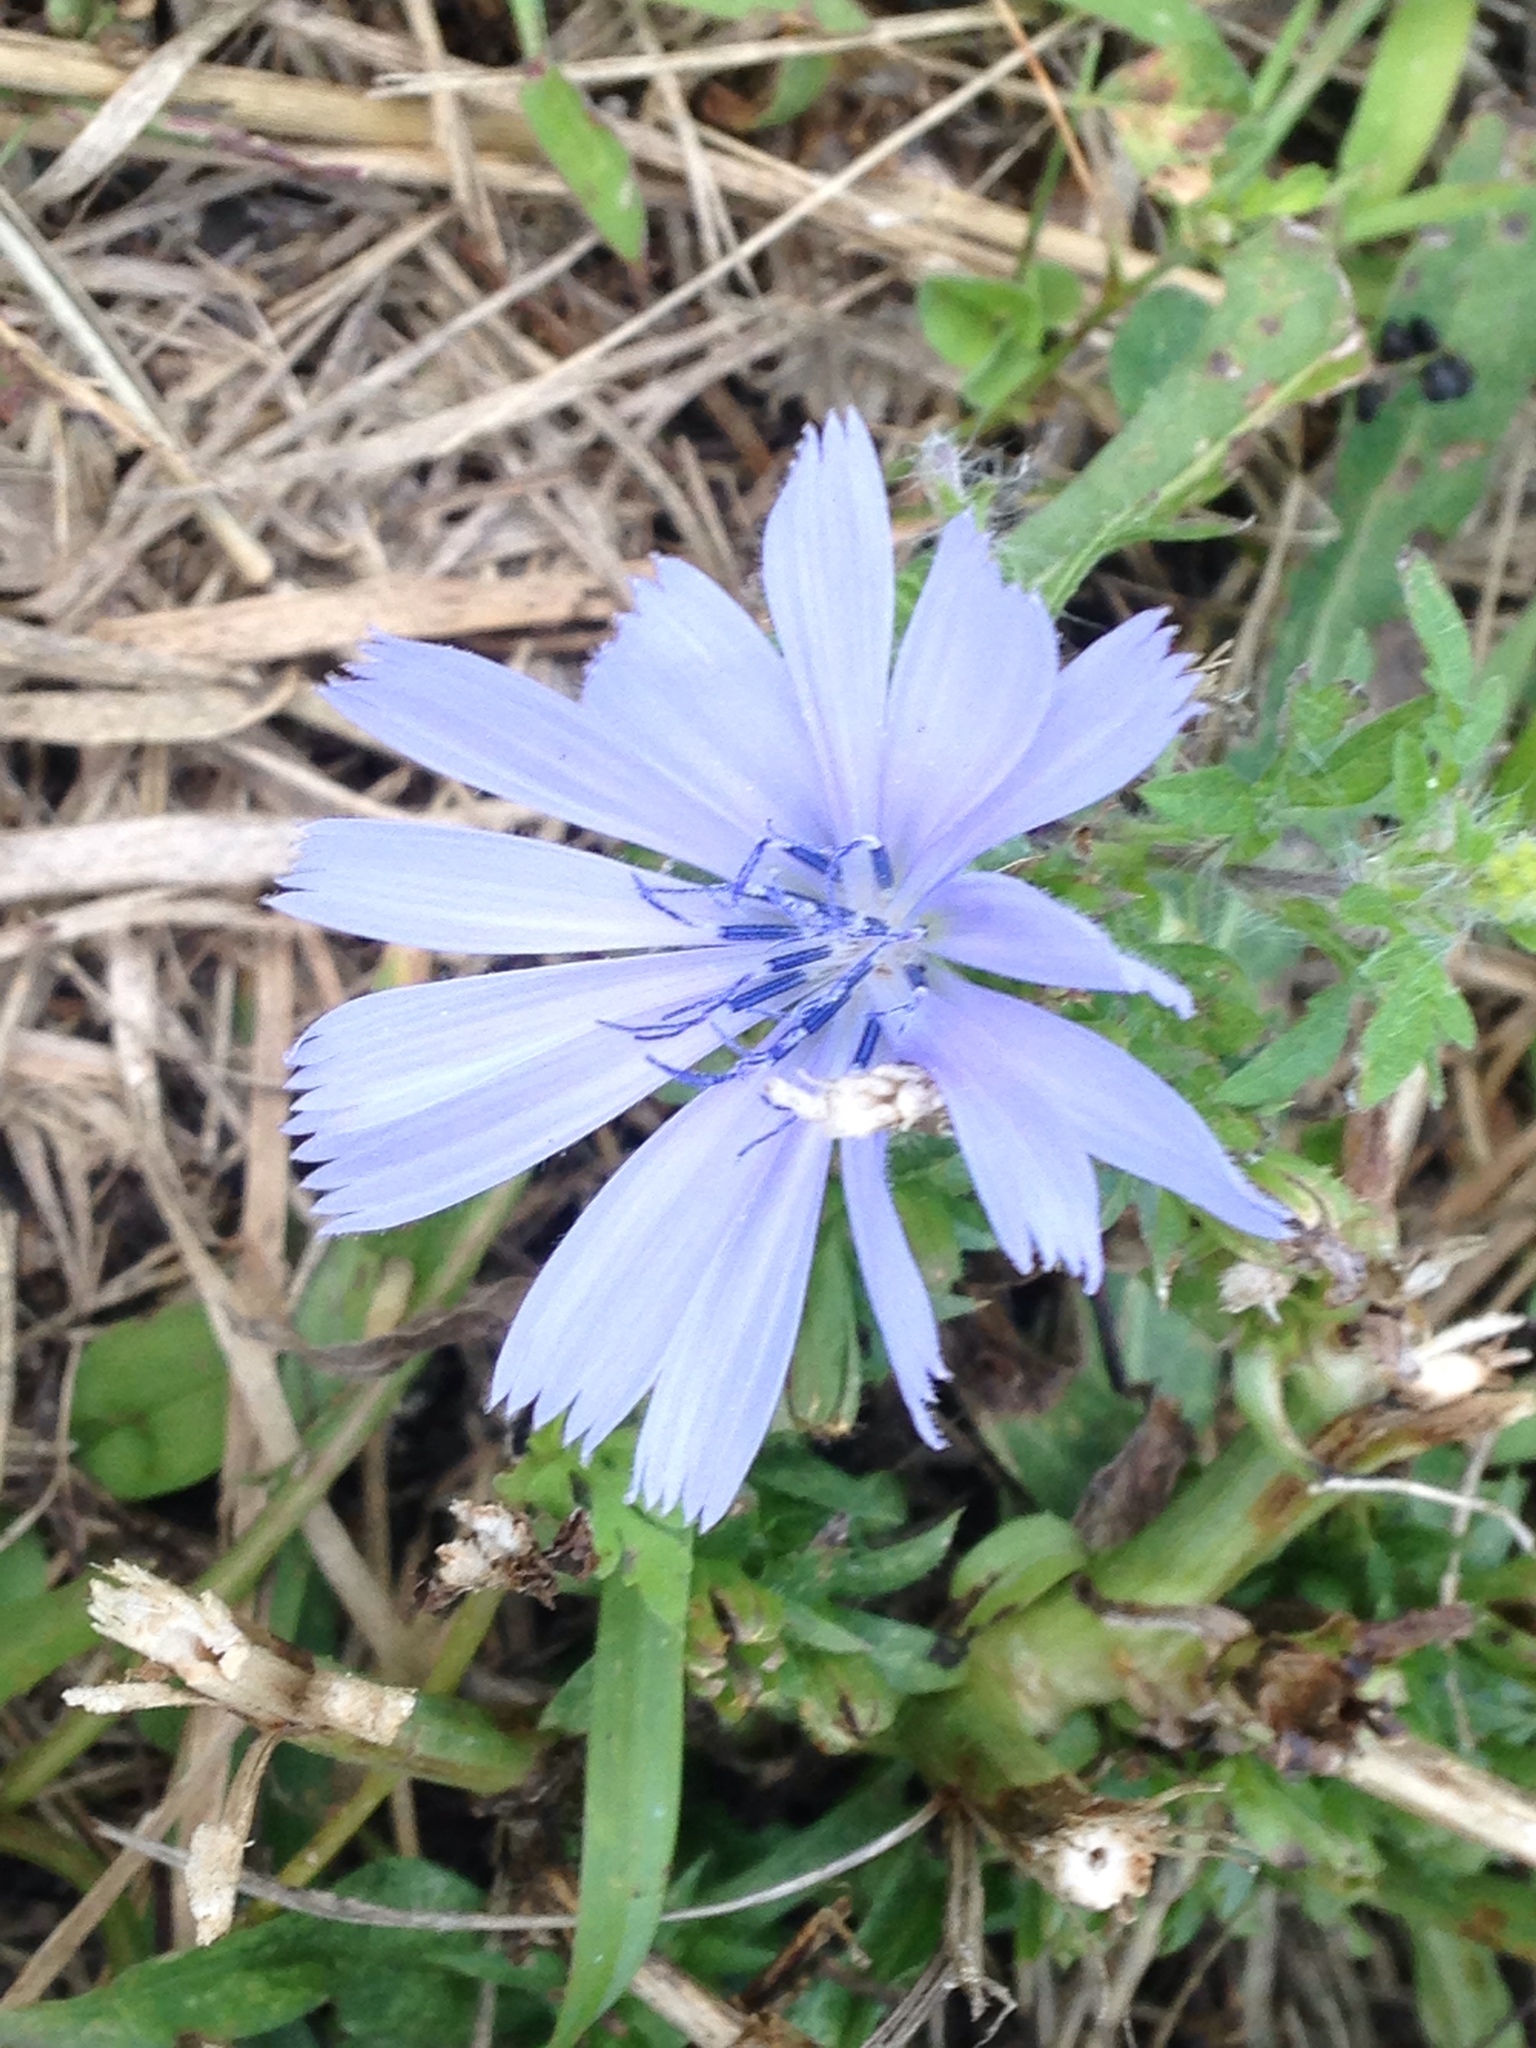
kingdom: Plantae
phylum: Tracheophyta
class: Magnoliopsida
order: Asterales
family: Asteraceae
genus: Cichorium
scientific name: Cichorium intybus
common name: Chicory
